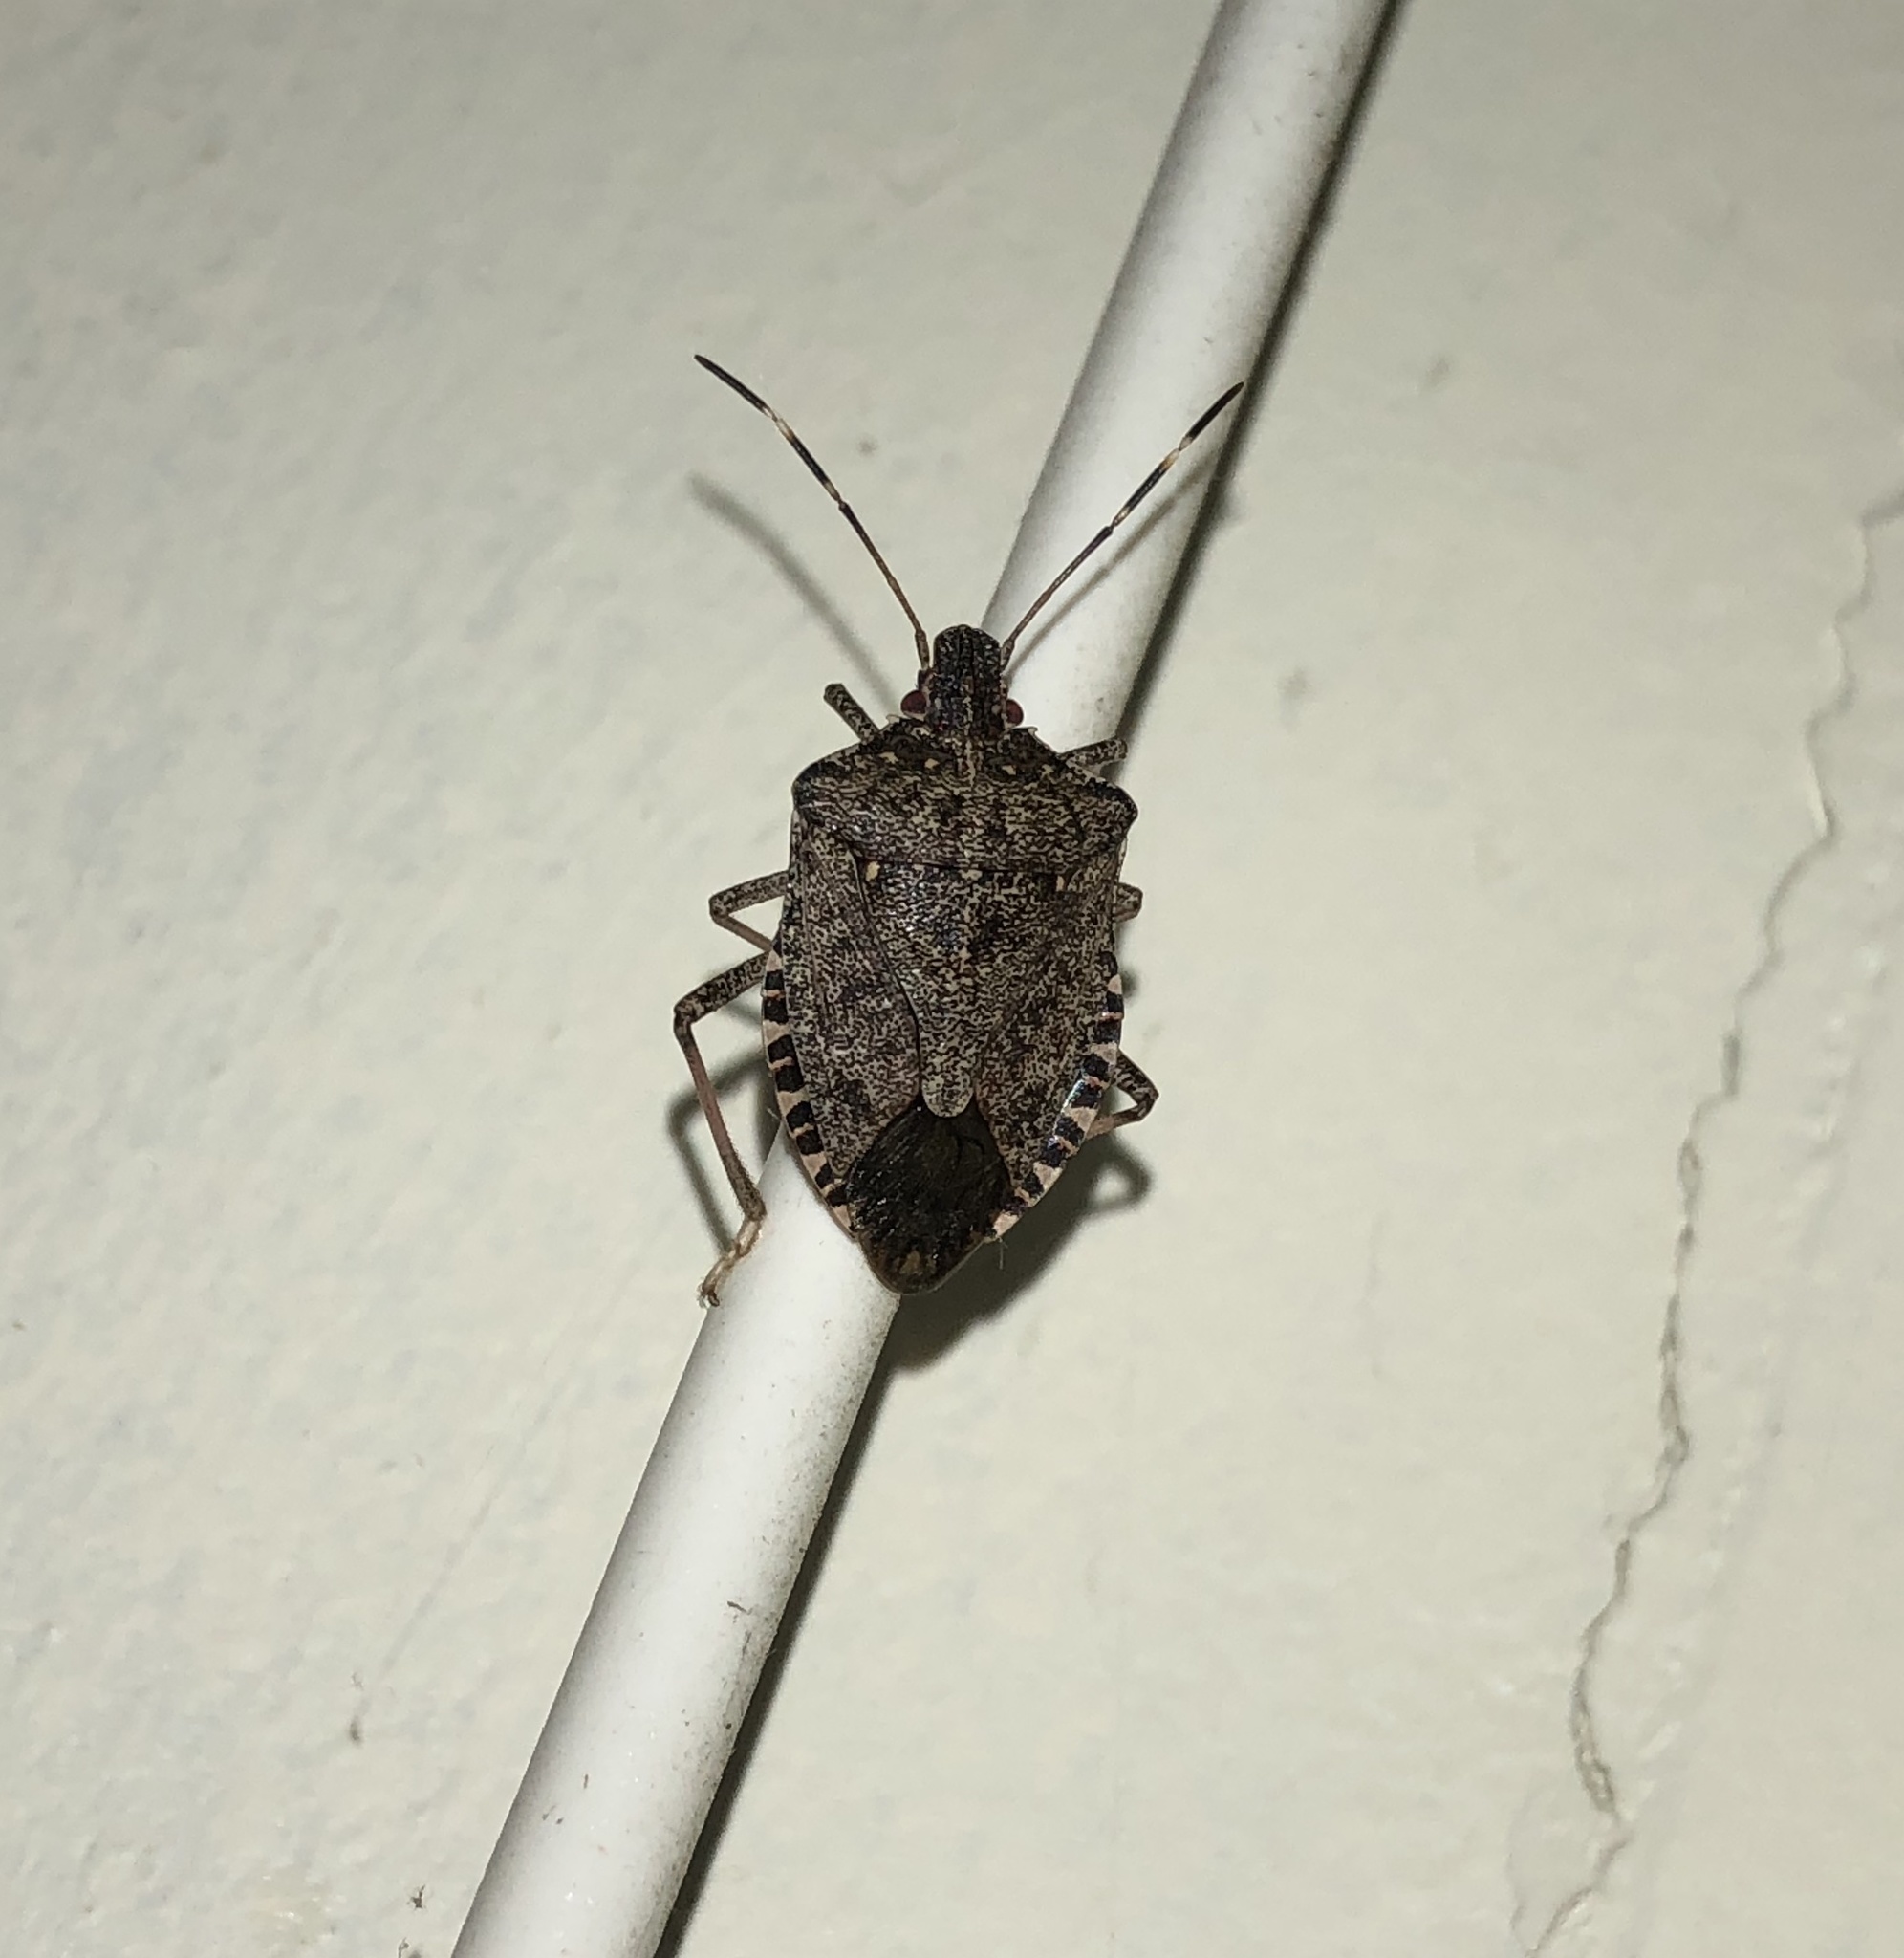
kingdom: Animalia
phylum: Arthropoda
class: Insecta
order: Hemiptera
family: Pentatomidae
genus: Halyomorpha
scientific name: Halyomorpha halys
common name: Brown marmorated stink bug
